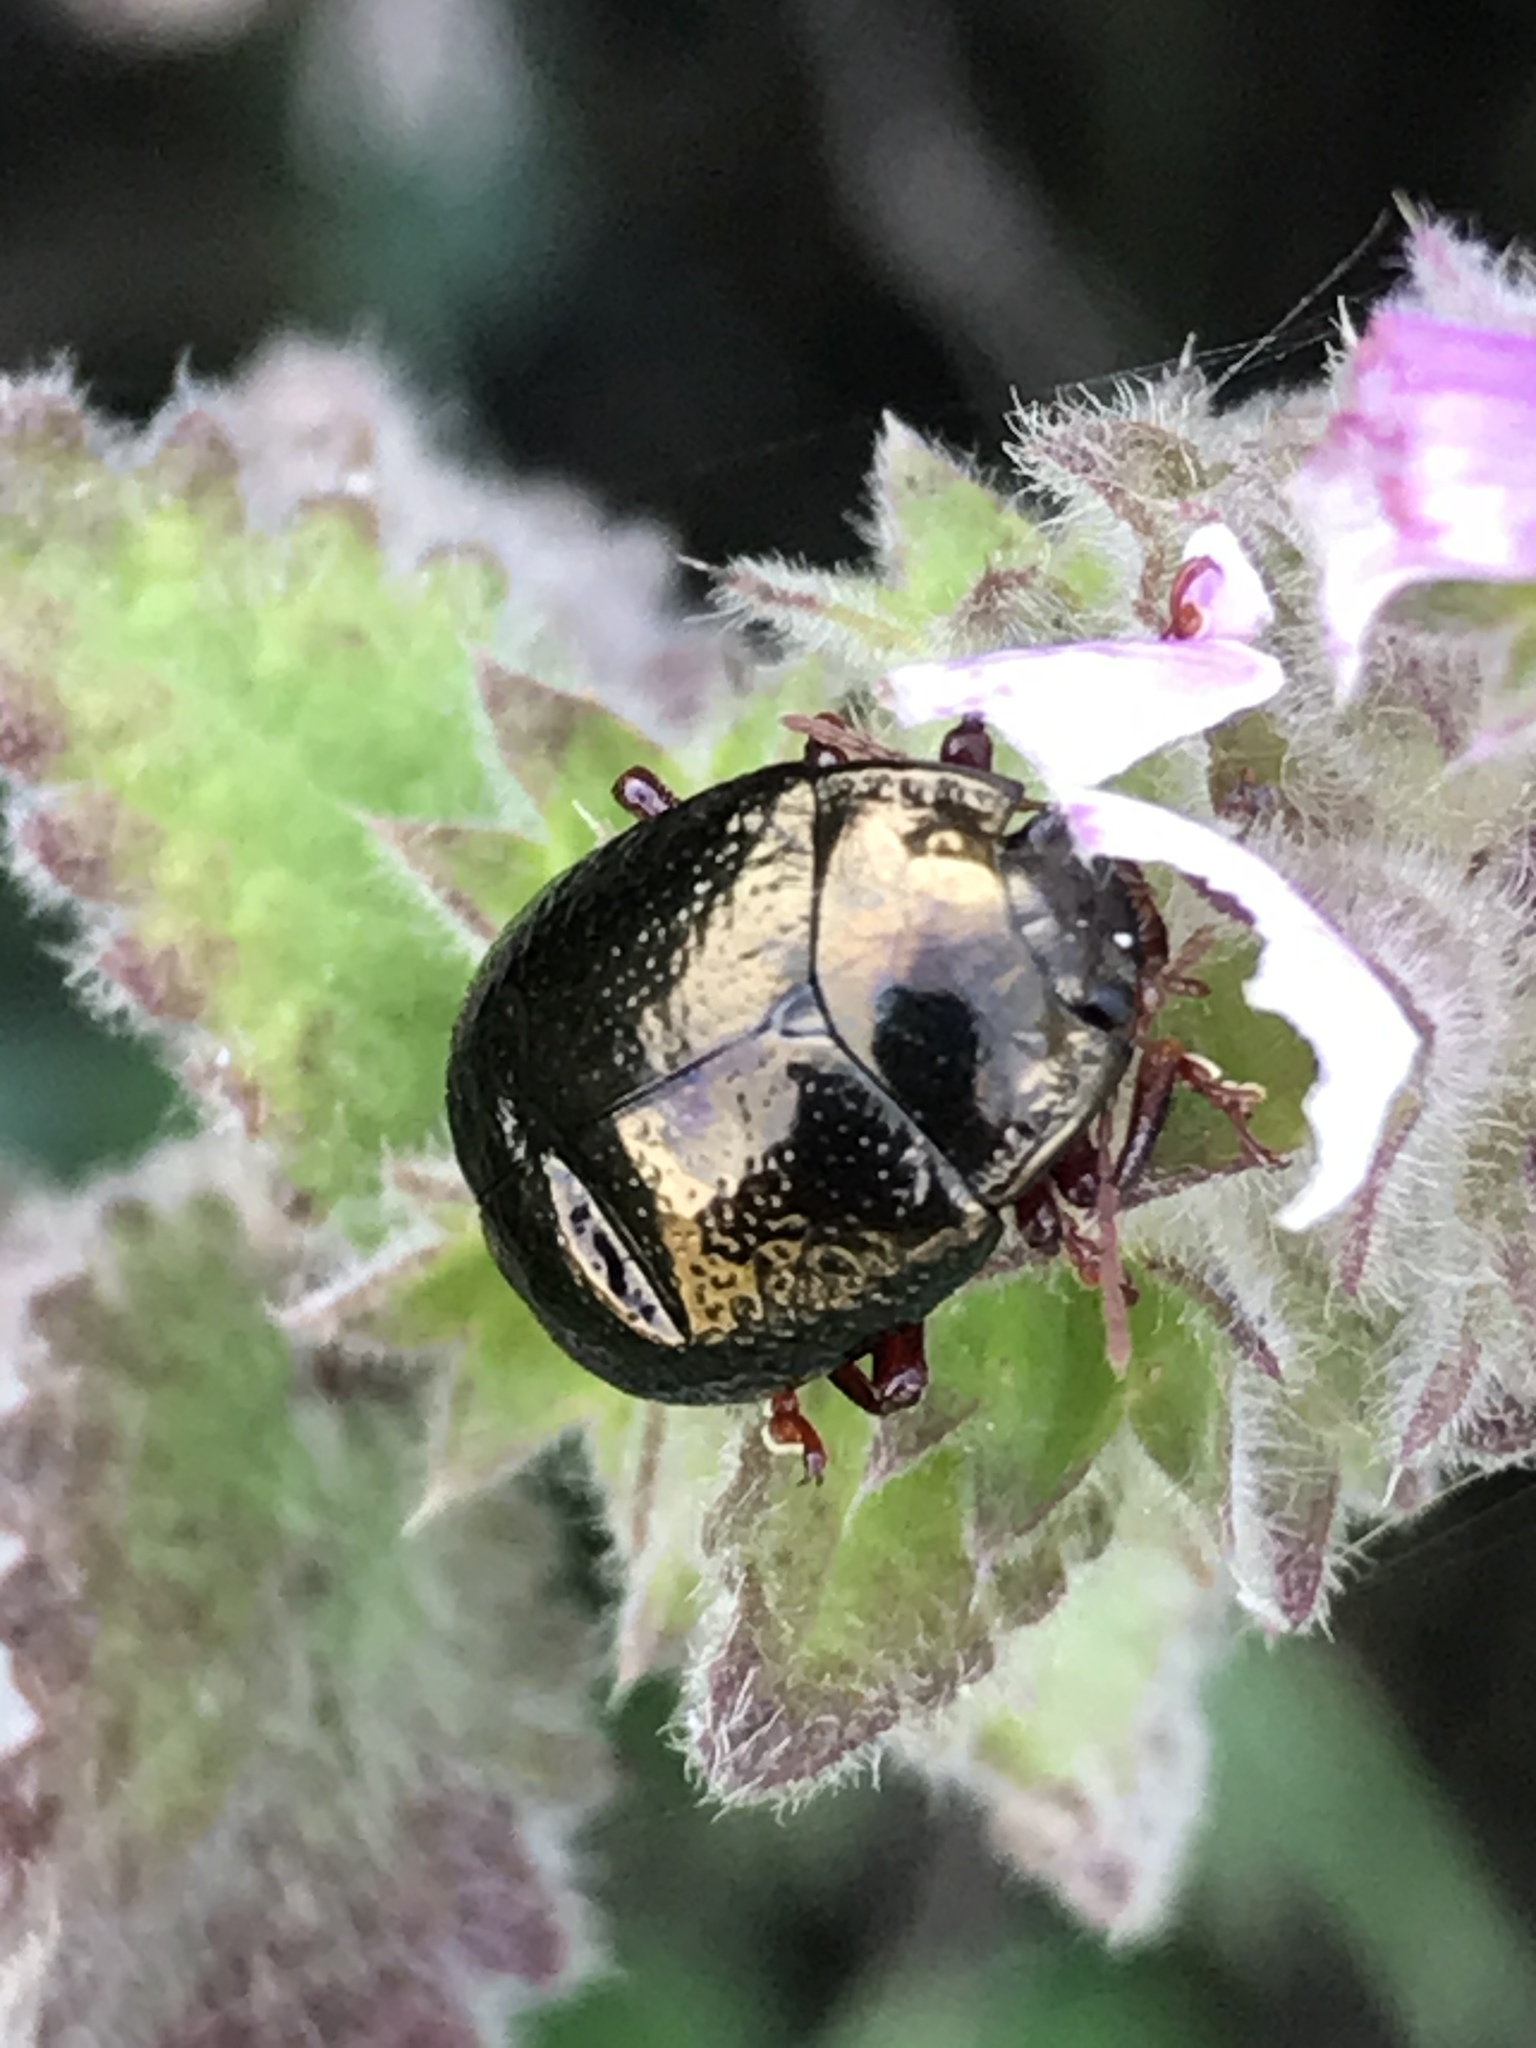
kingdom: Animalia
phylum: Arthropoda
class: Insecta
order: Coleoptera
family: Chrysomelidae
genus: Chrysolina
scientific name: Chrysolina bankii
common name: Leaf beetle
